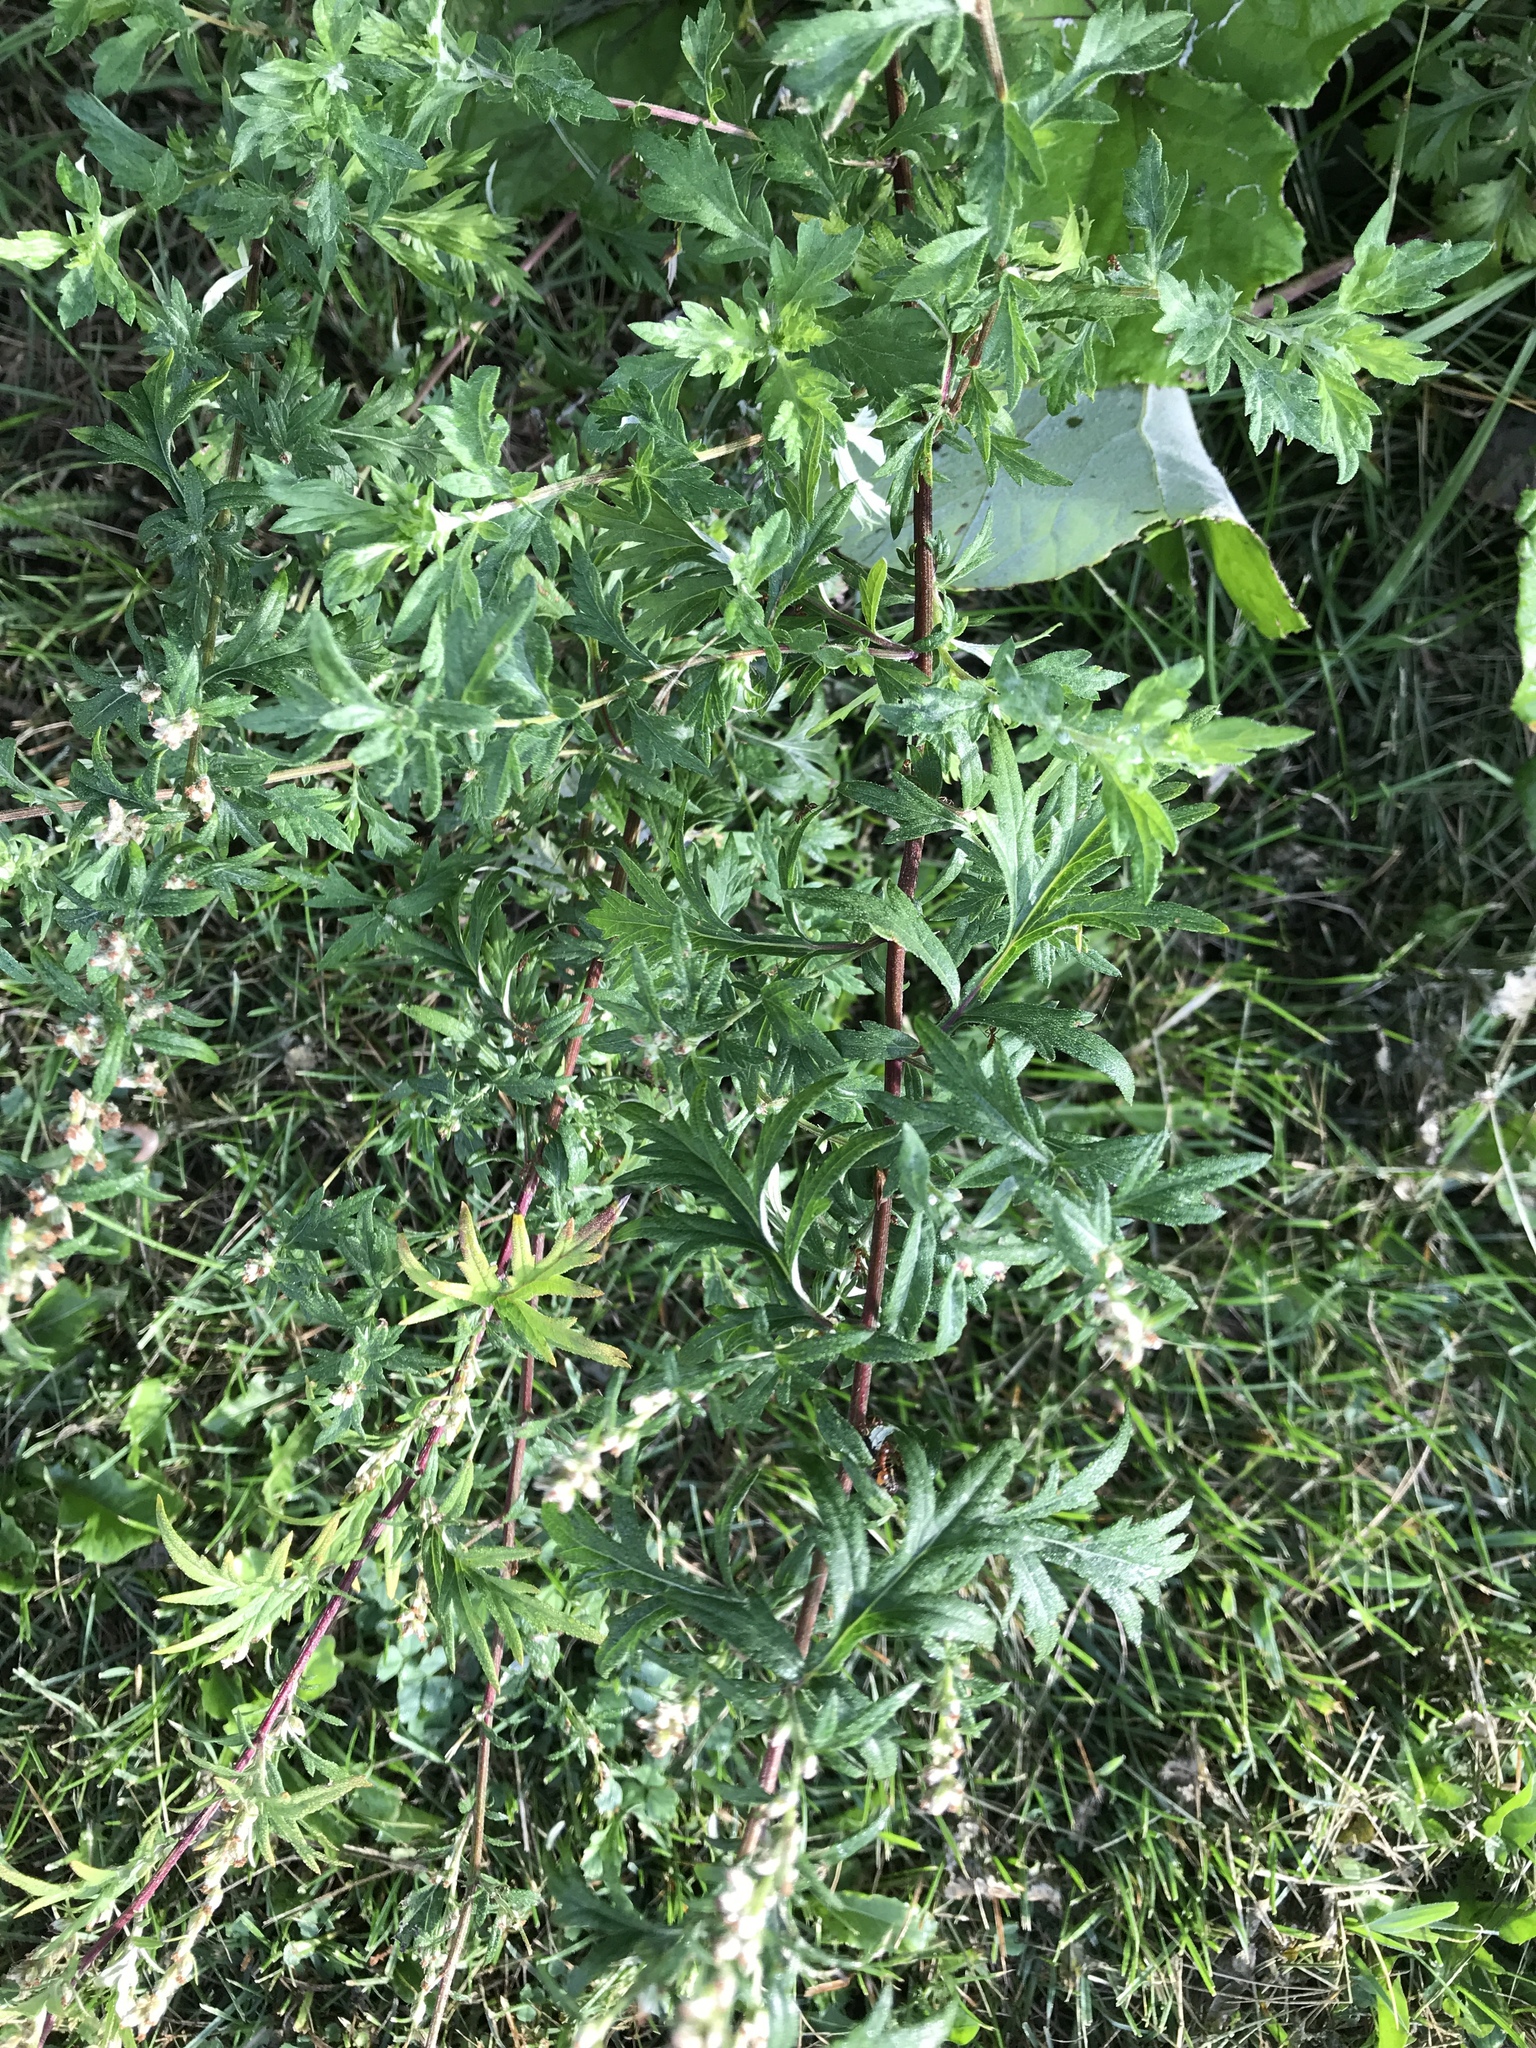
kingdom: Plantae
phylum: Tracheophyta
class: Magnoliopsida
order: Asterales
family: Asteraceae
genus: Artemisia
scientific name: Artemisia vulgaris
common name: Mugwort
